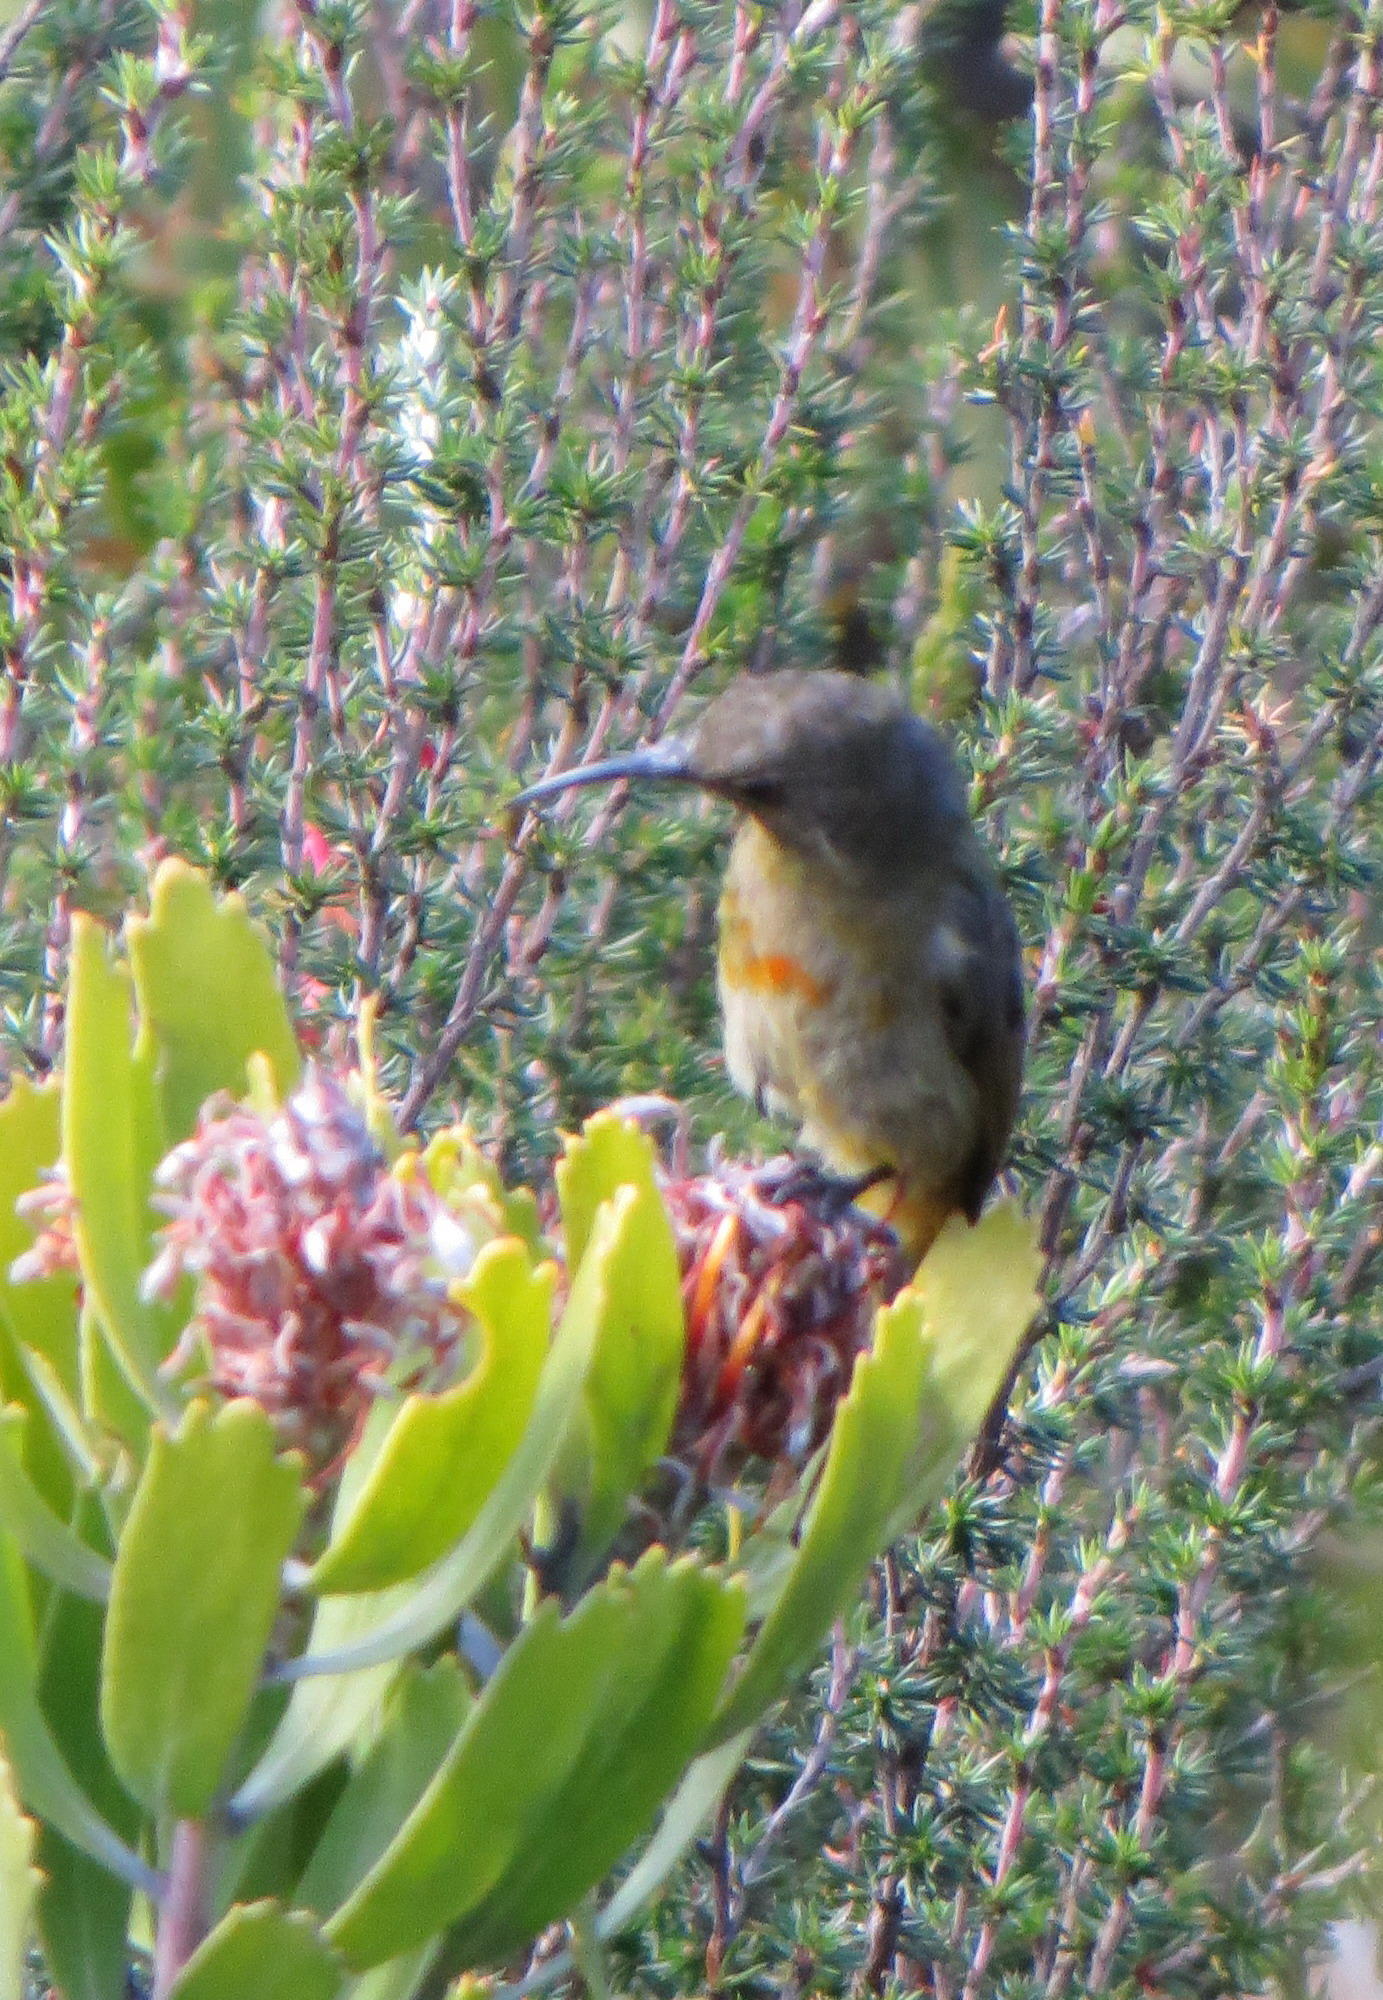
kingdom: Animalia
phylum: Chordata
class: Aves
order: Passeriformes
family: Nectariniidae
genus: Anthobaphes
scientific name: Anthobaphes violacea
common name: Orange-breasted sunbird
